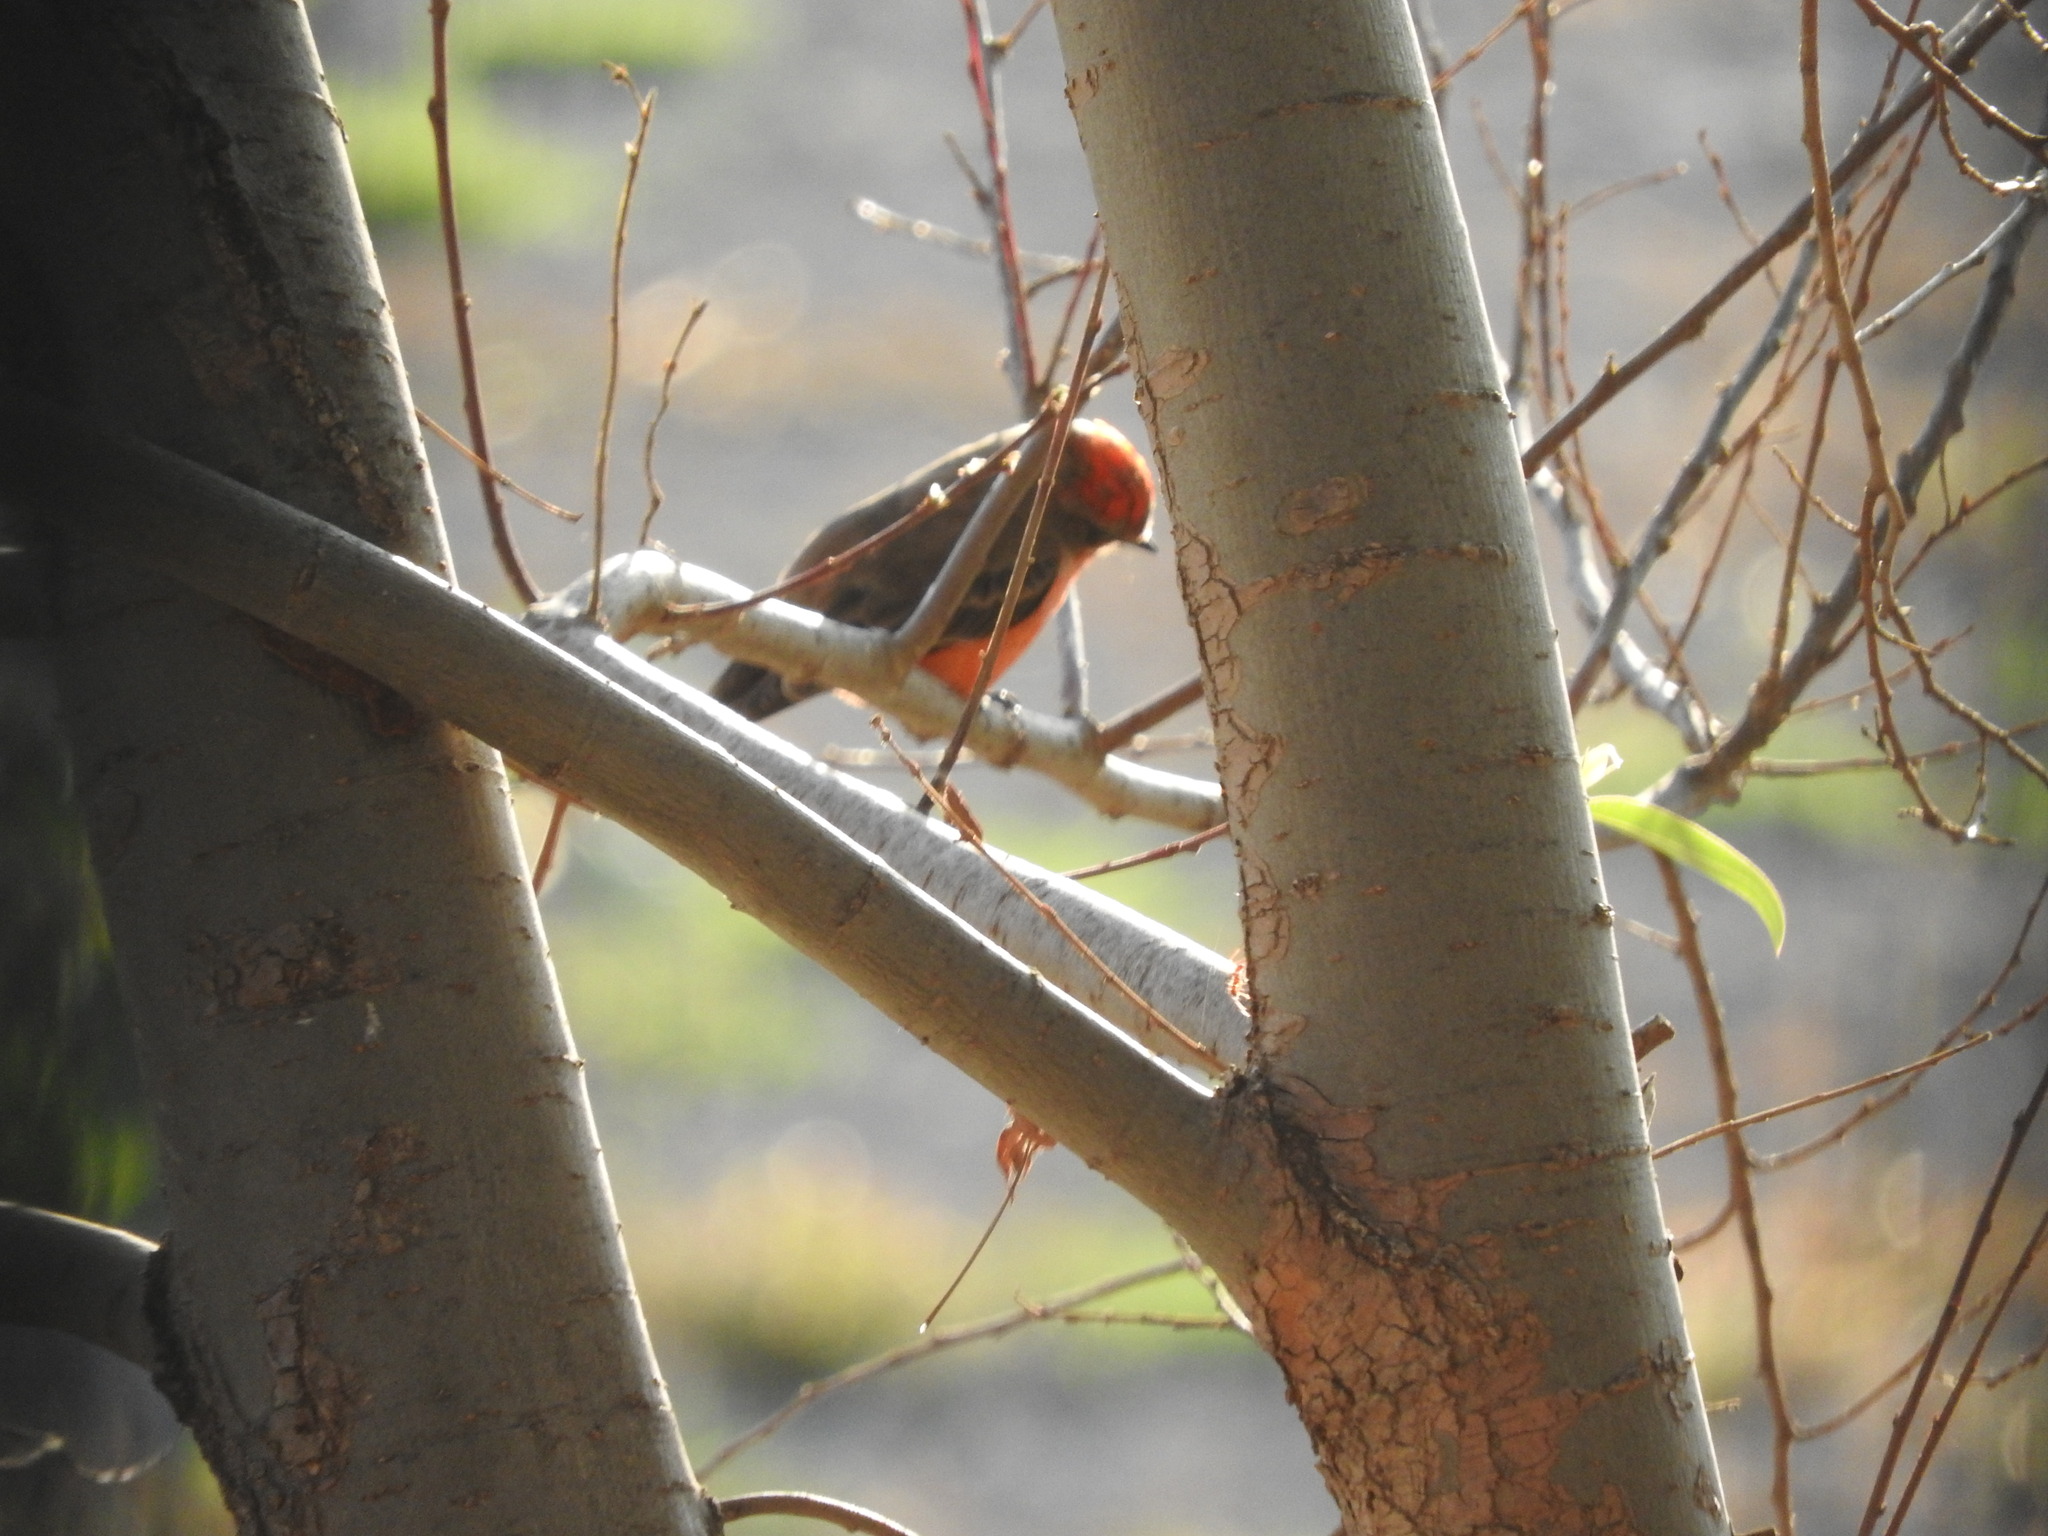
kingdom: Animalia
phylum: Chordata
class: Aves
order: Passeriformes
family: Tyrannidae
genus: Pyrocephalus
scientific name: Pyrocephalus rubinus
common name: Vermilion flycatcher
